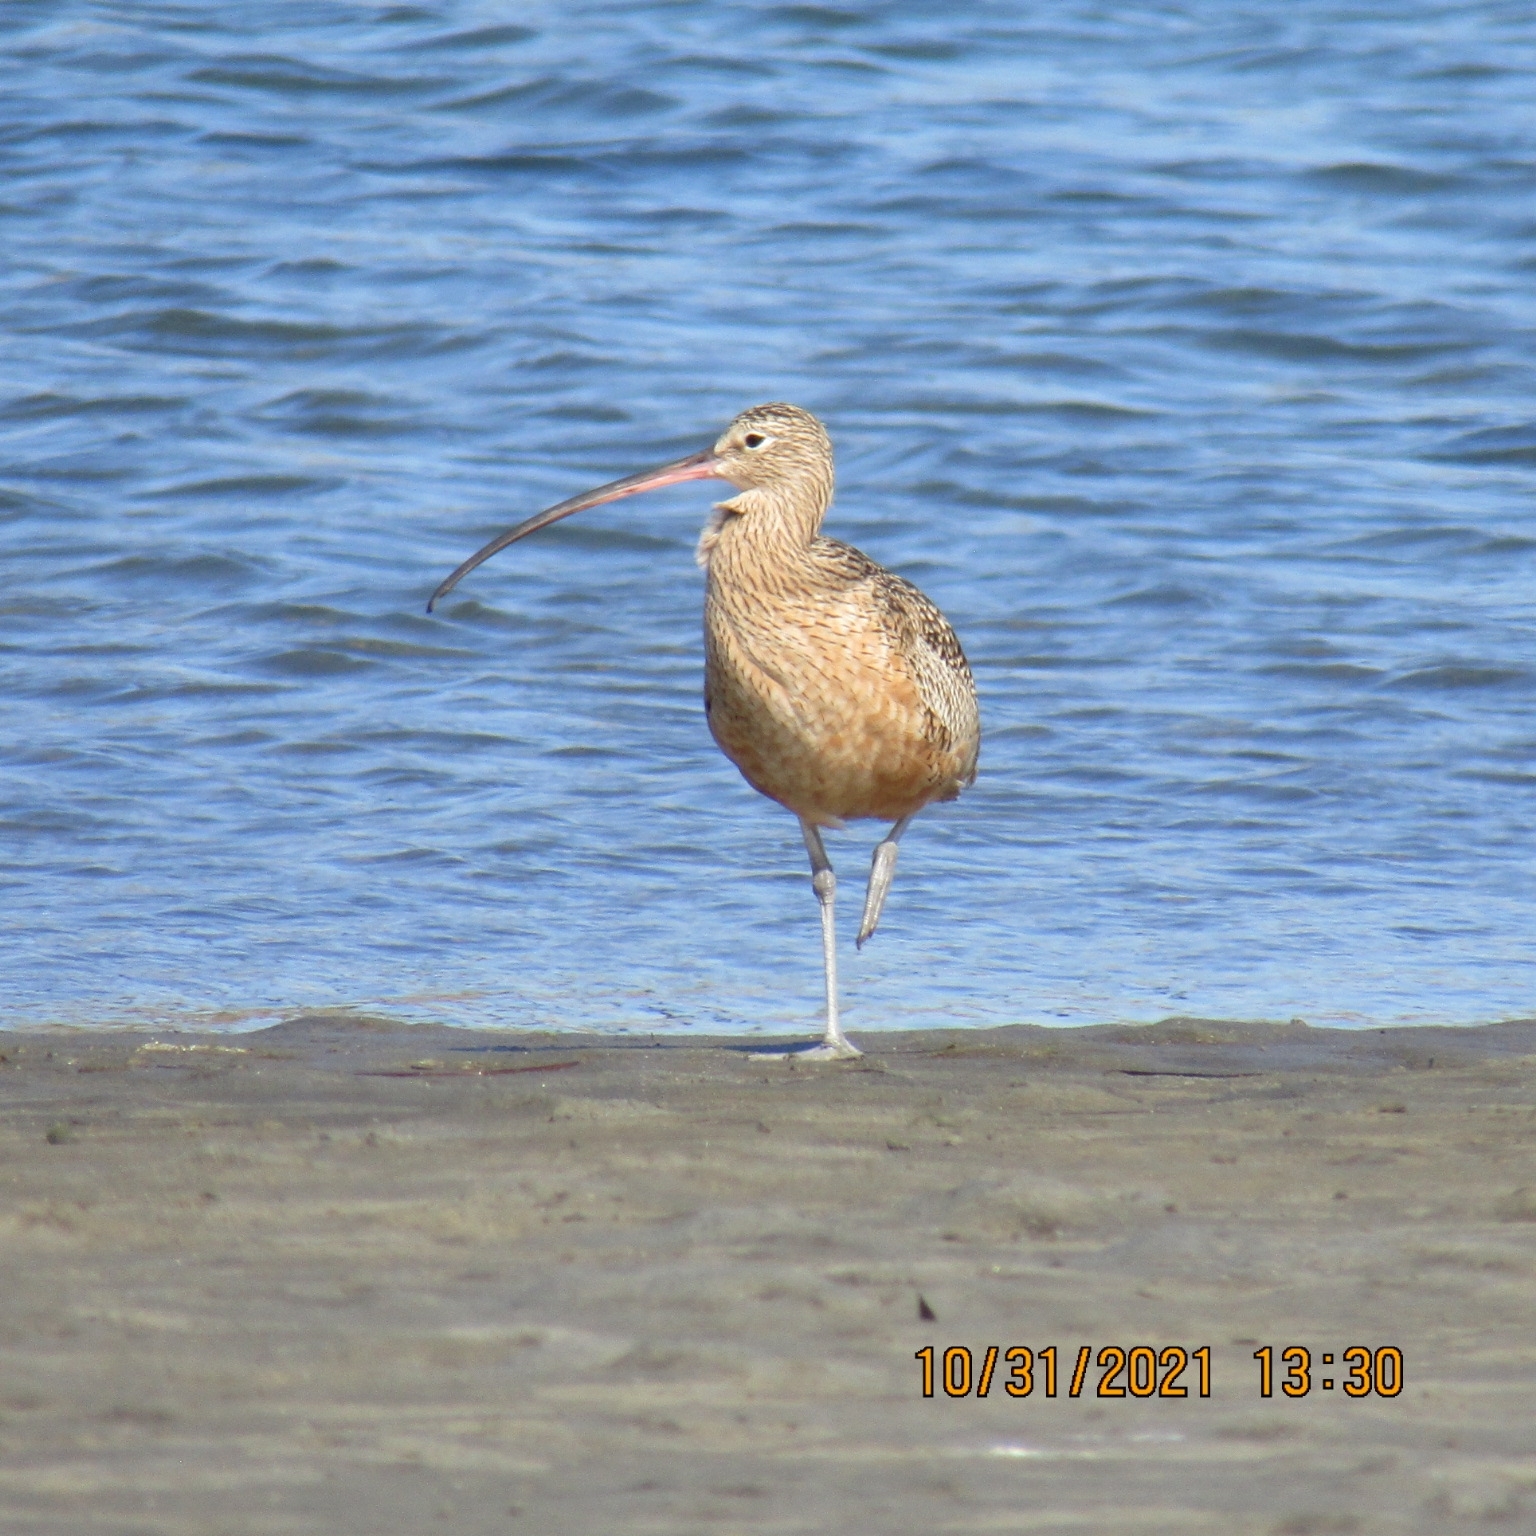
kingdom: Animalia
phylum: Chordata
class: Aves
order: Charadriiformes
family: Scolopacidae
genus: Numenius
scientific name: Numenius americanus
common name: Long-billed curlew
